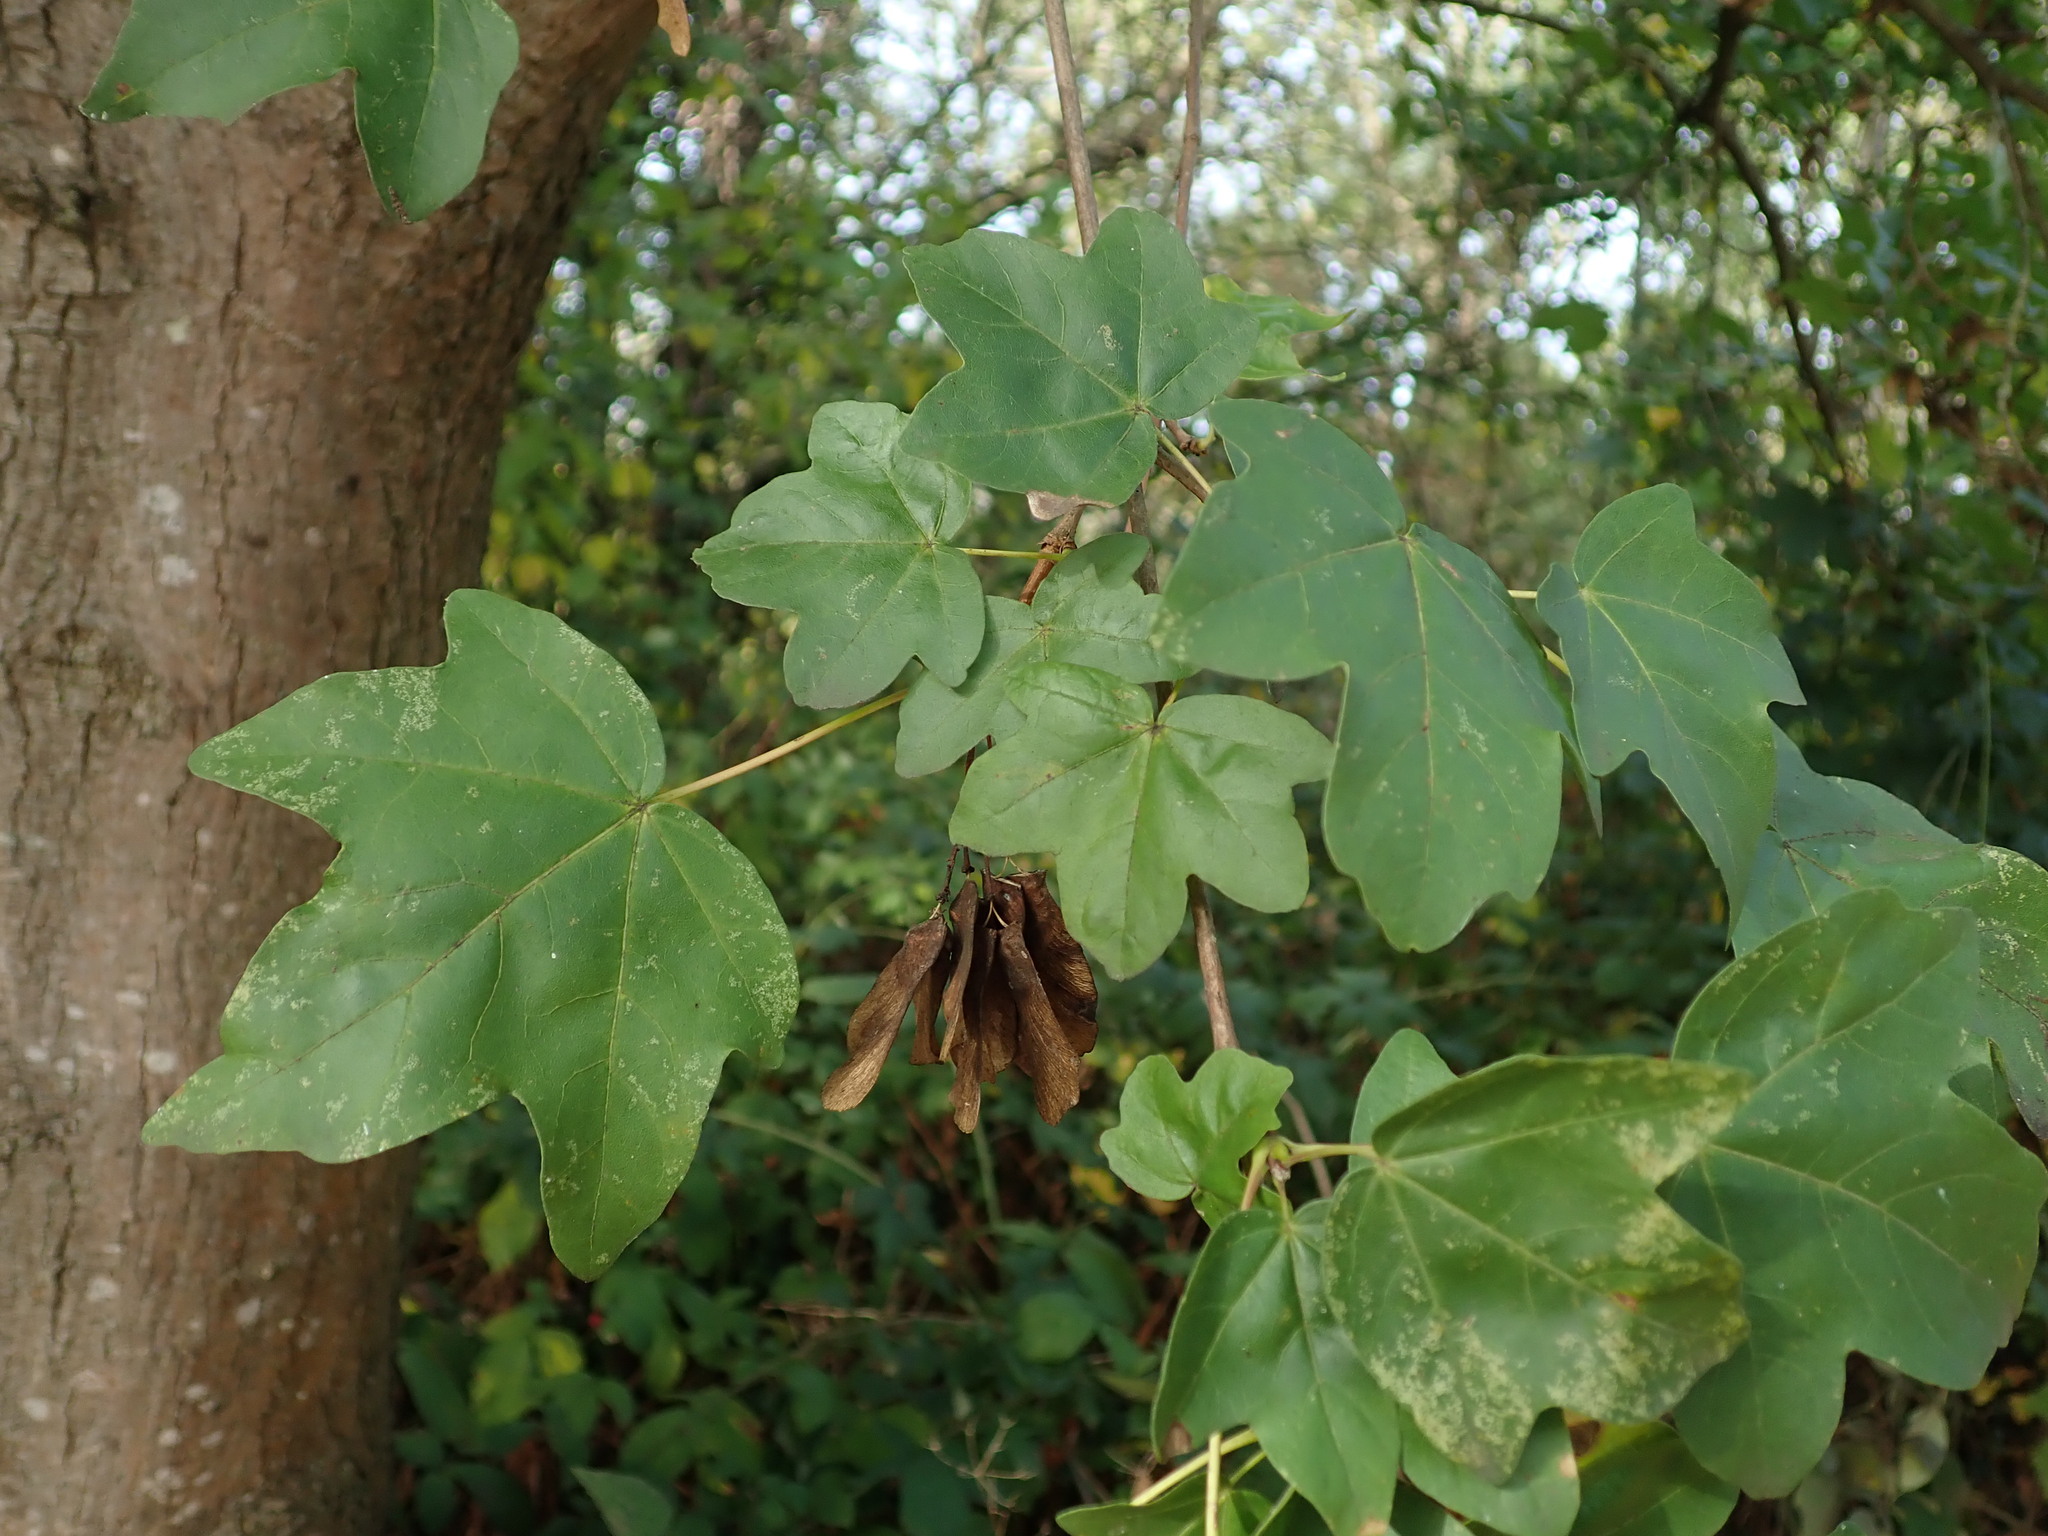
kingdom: Plantae
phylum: Tracheophyta
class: Magnoliopsida
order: Sapindales
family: Sapindaceae
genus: Acer
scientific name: Acer campestre
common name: Field maple
